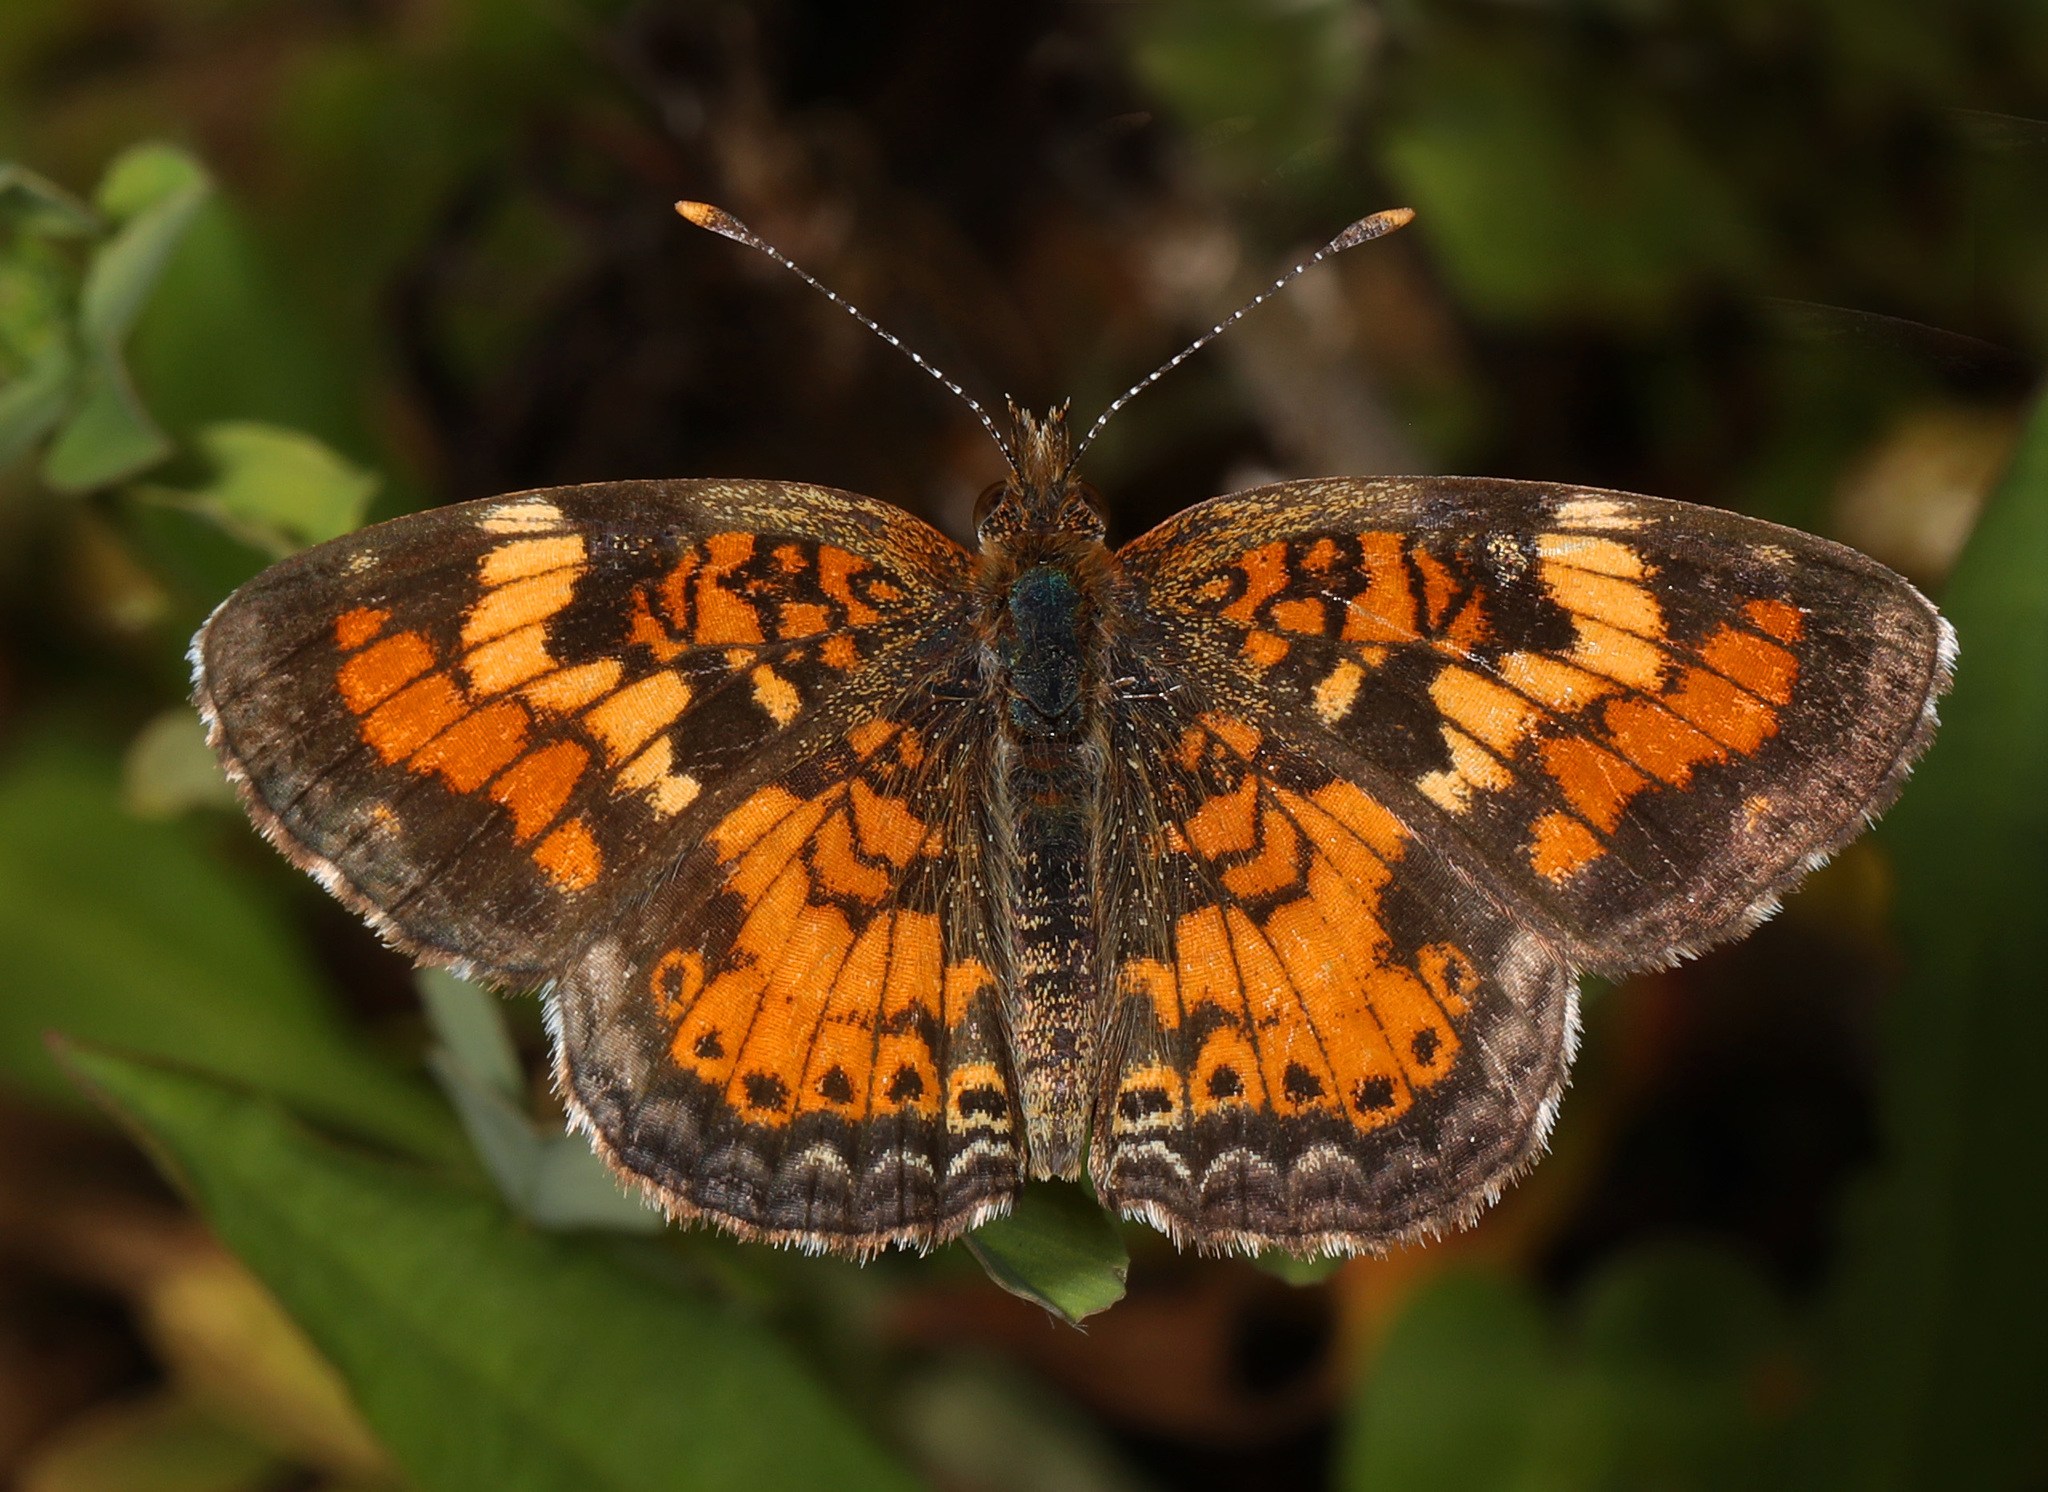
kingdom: Animalia
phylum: Arthropoda
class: Insecta
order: Lepidoptera
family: Nymphalidae
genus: Phyciodes
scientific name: Phyciodes phaon
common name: Phaon crescent
